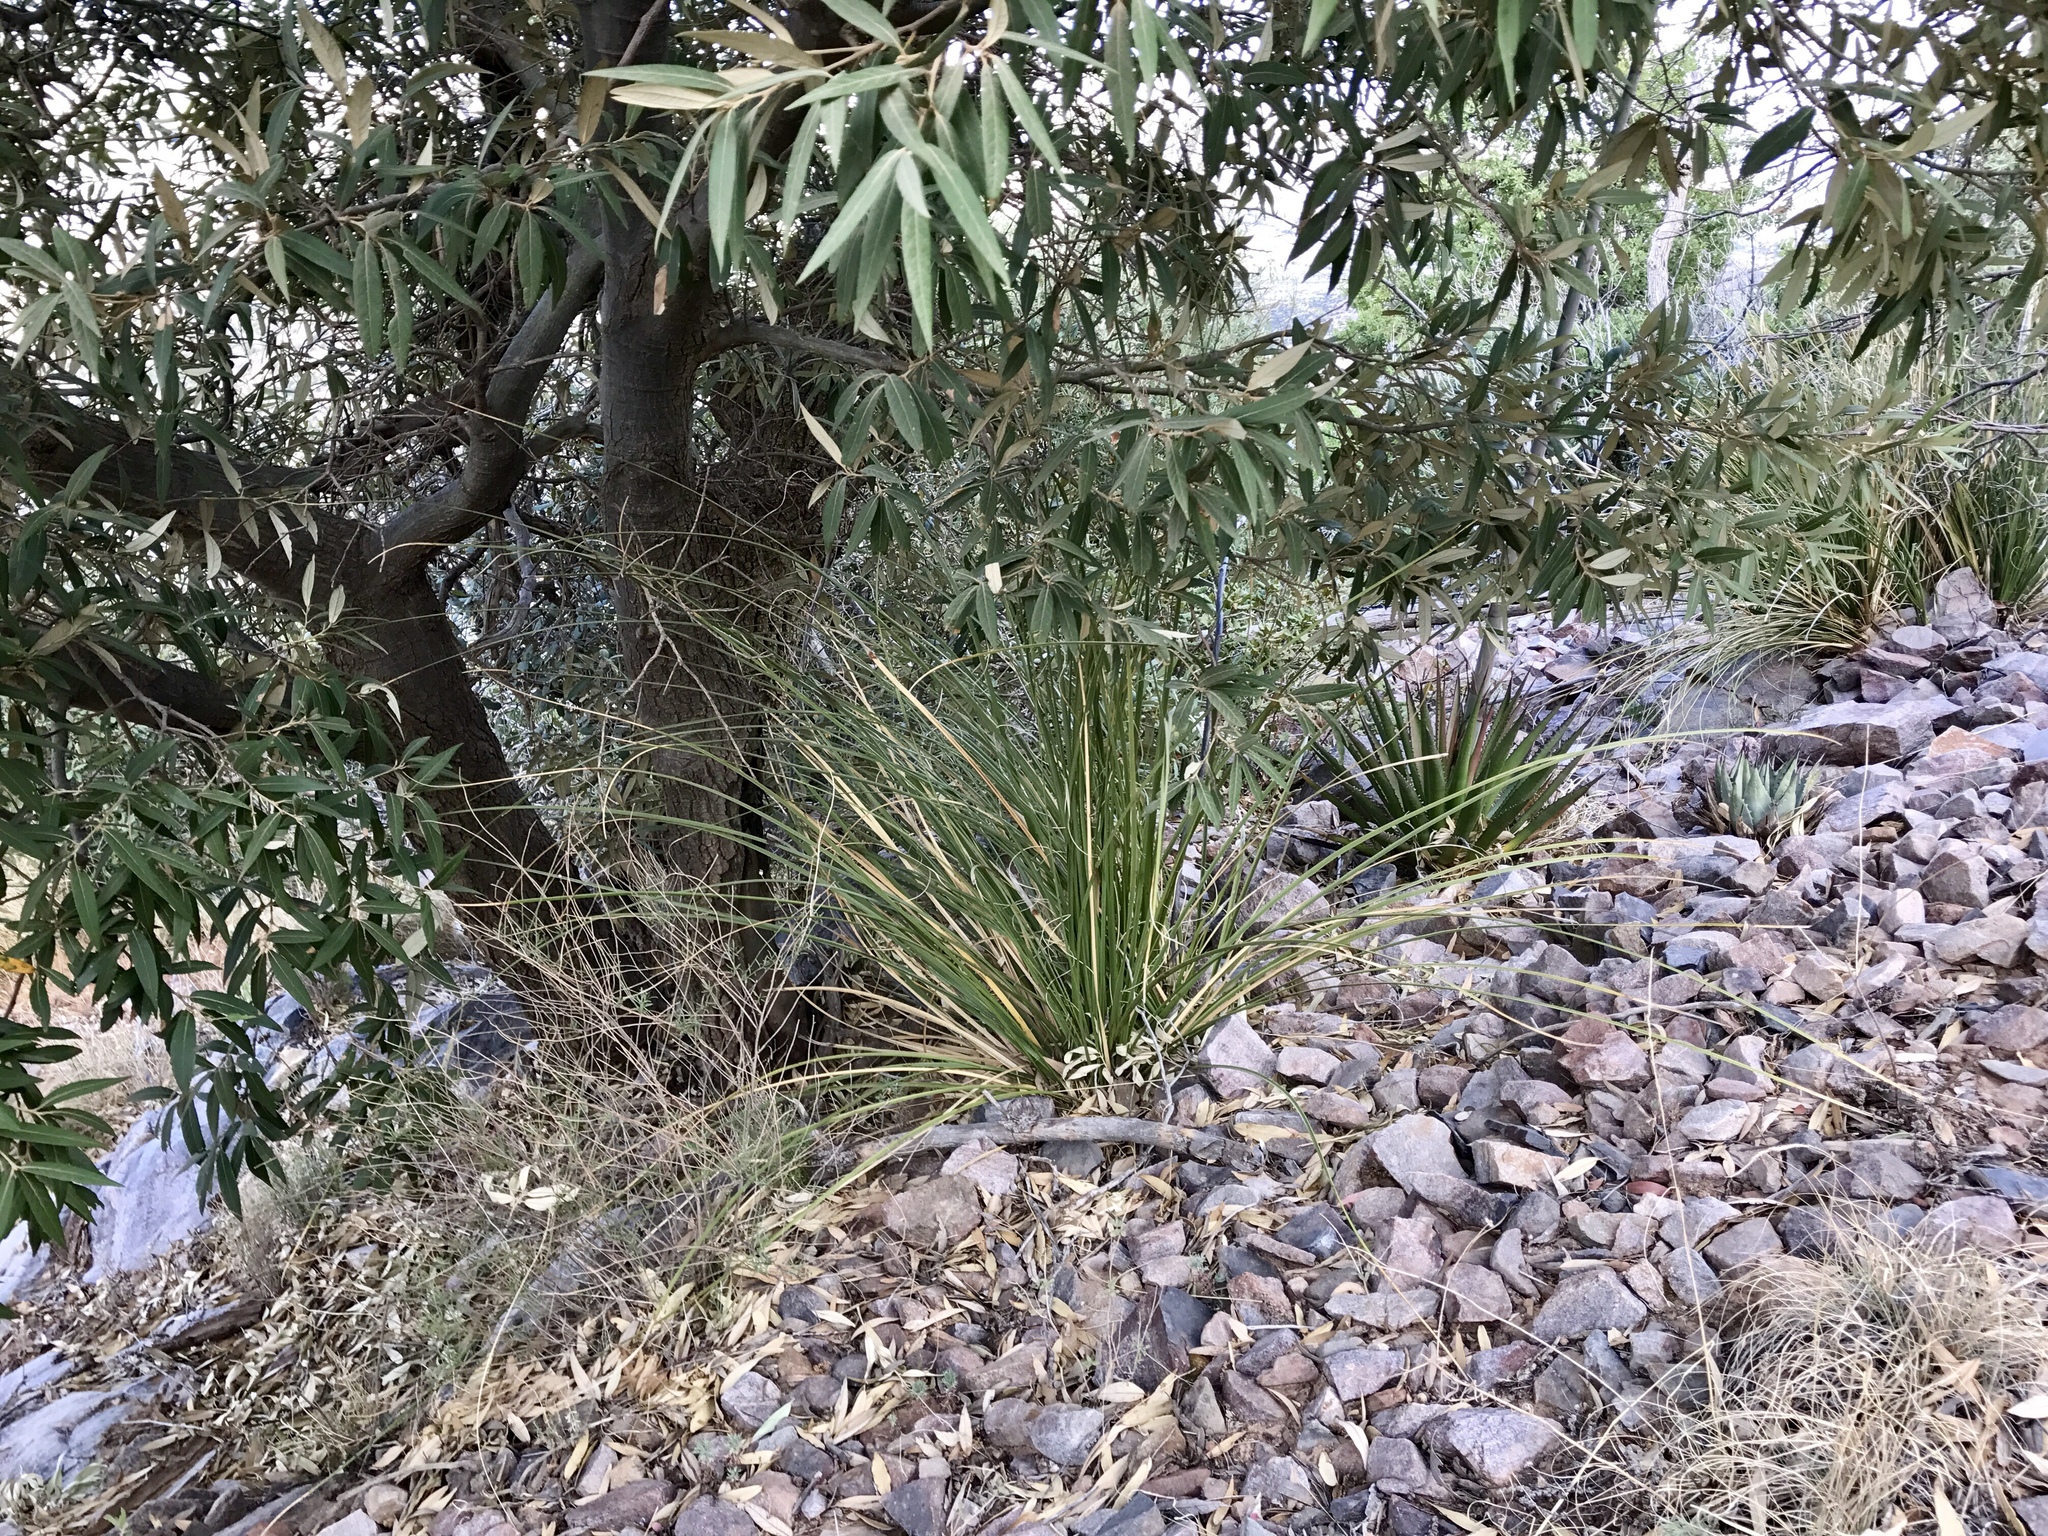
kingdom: Plantae
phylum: Tracheophyta
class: Liliopsida
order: Asparagales
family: Asparagaceae
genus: Nolina
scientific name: Nolina microcarpa
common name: Bear-grass
